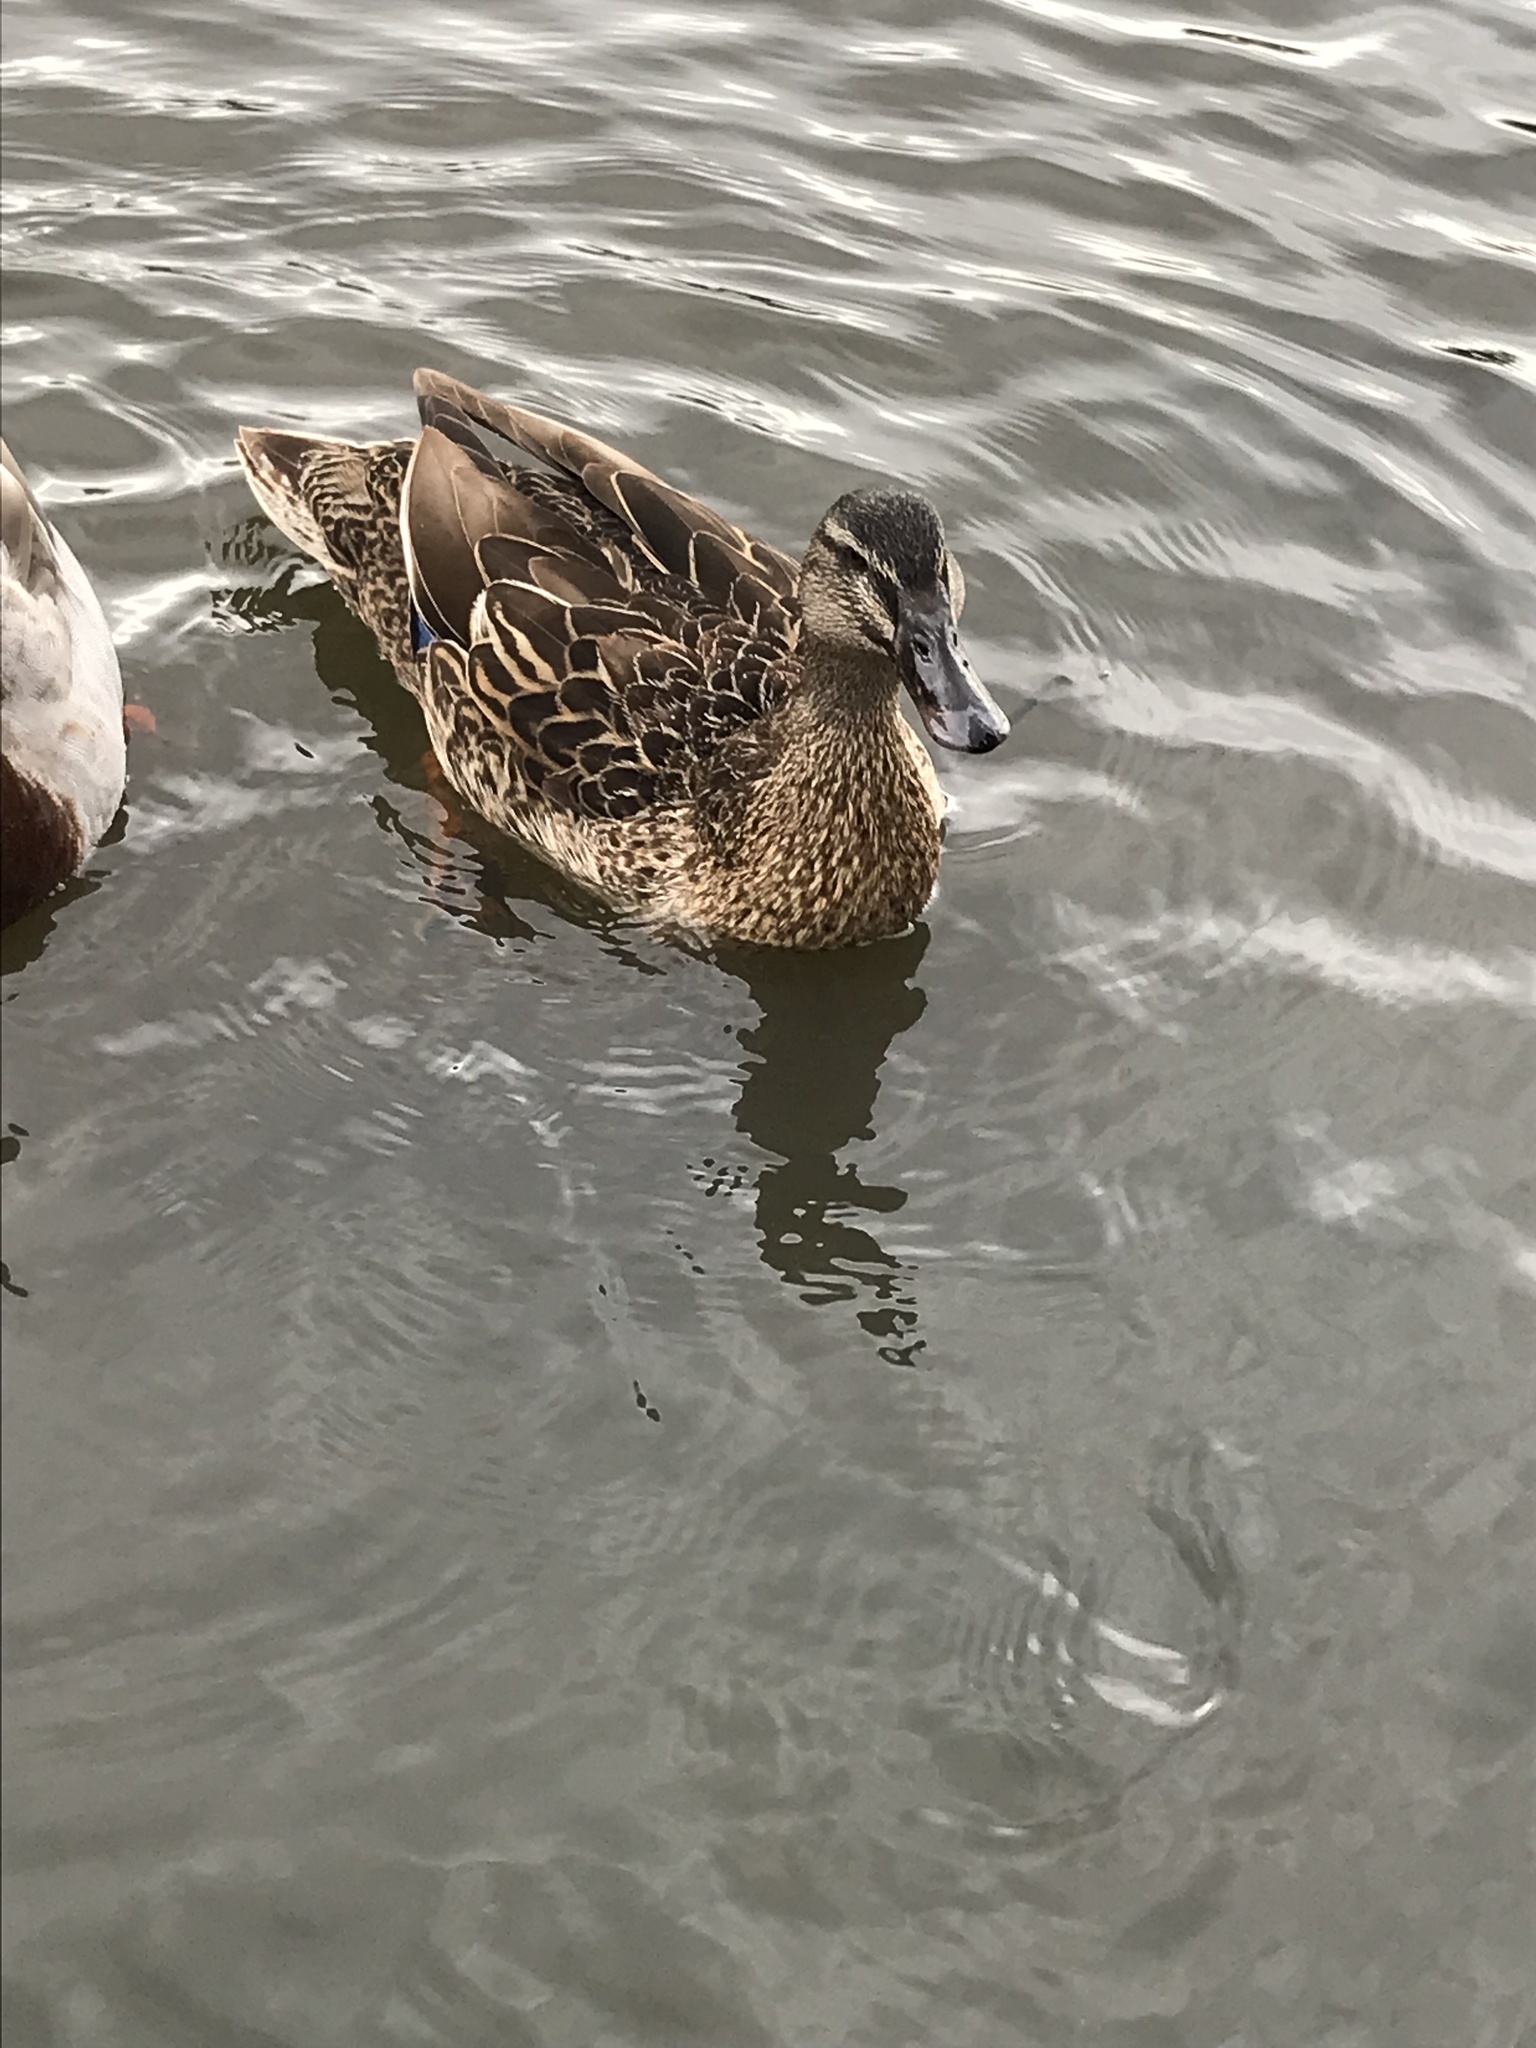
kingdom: Animalia
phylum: Chordata
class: Aves
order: Anseriformes
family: Anatidae
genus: Anas
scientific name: Anas
